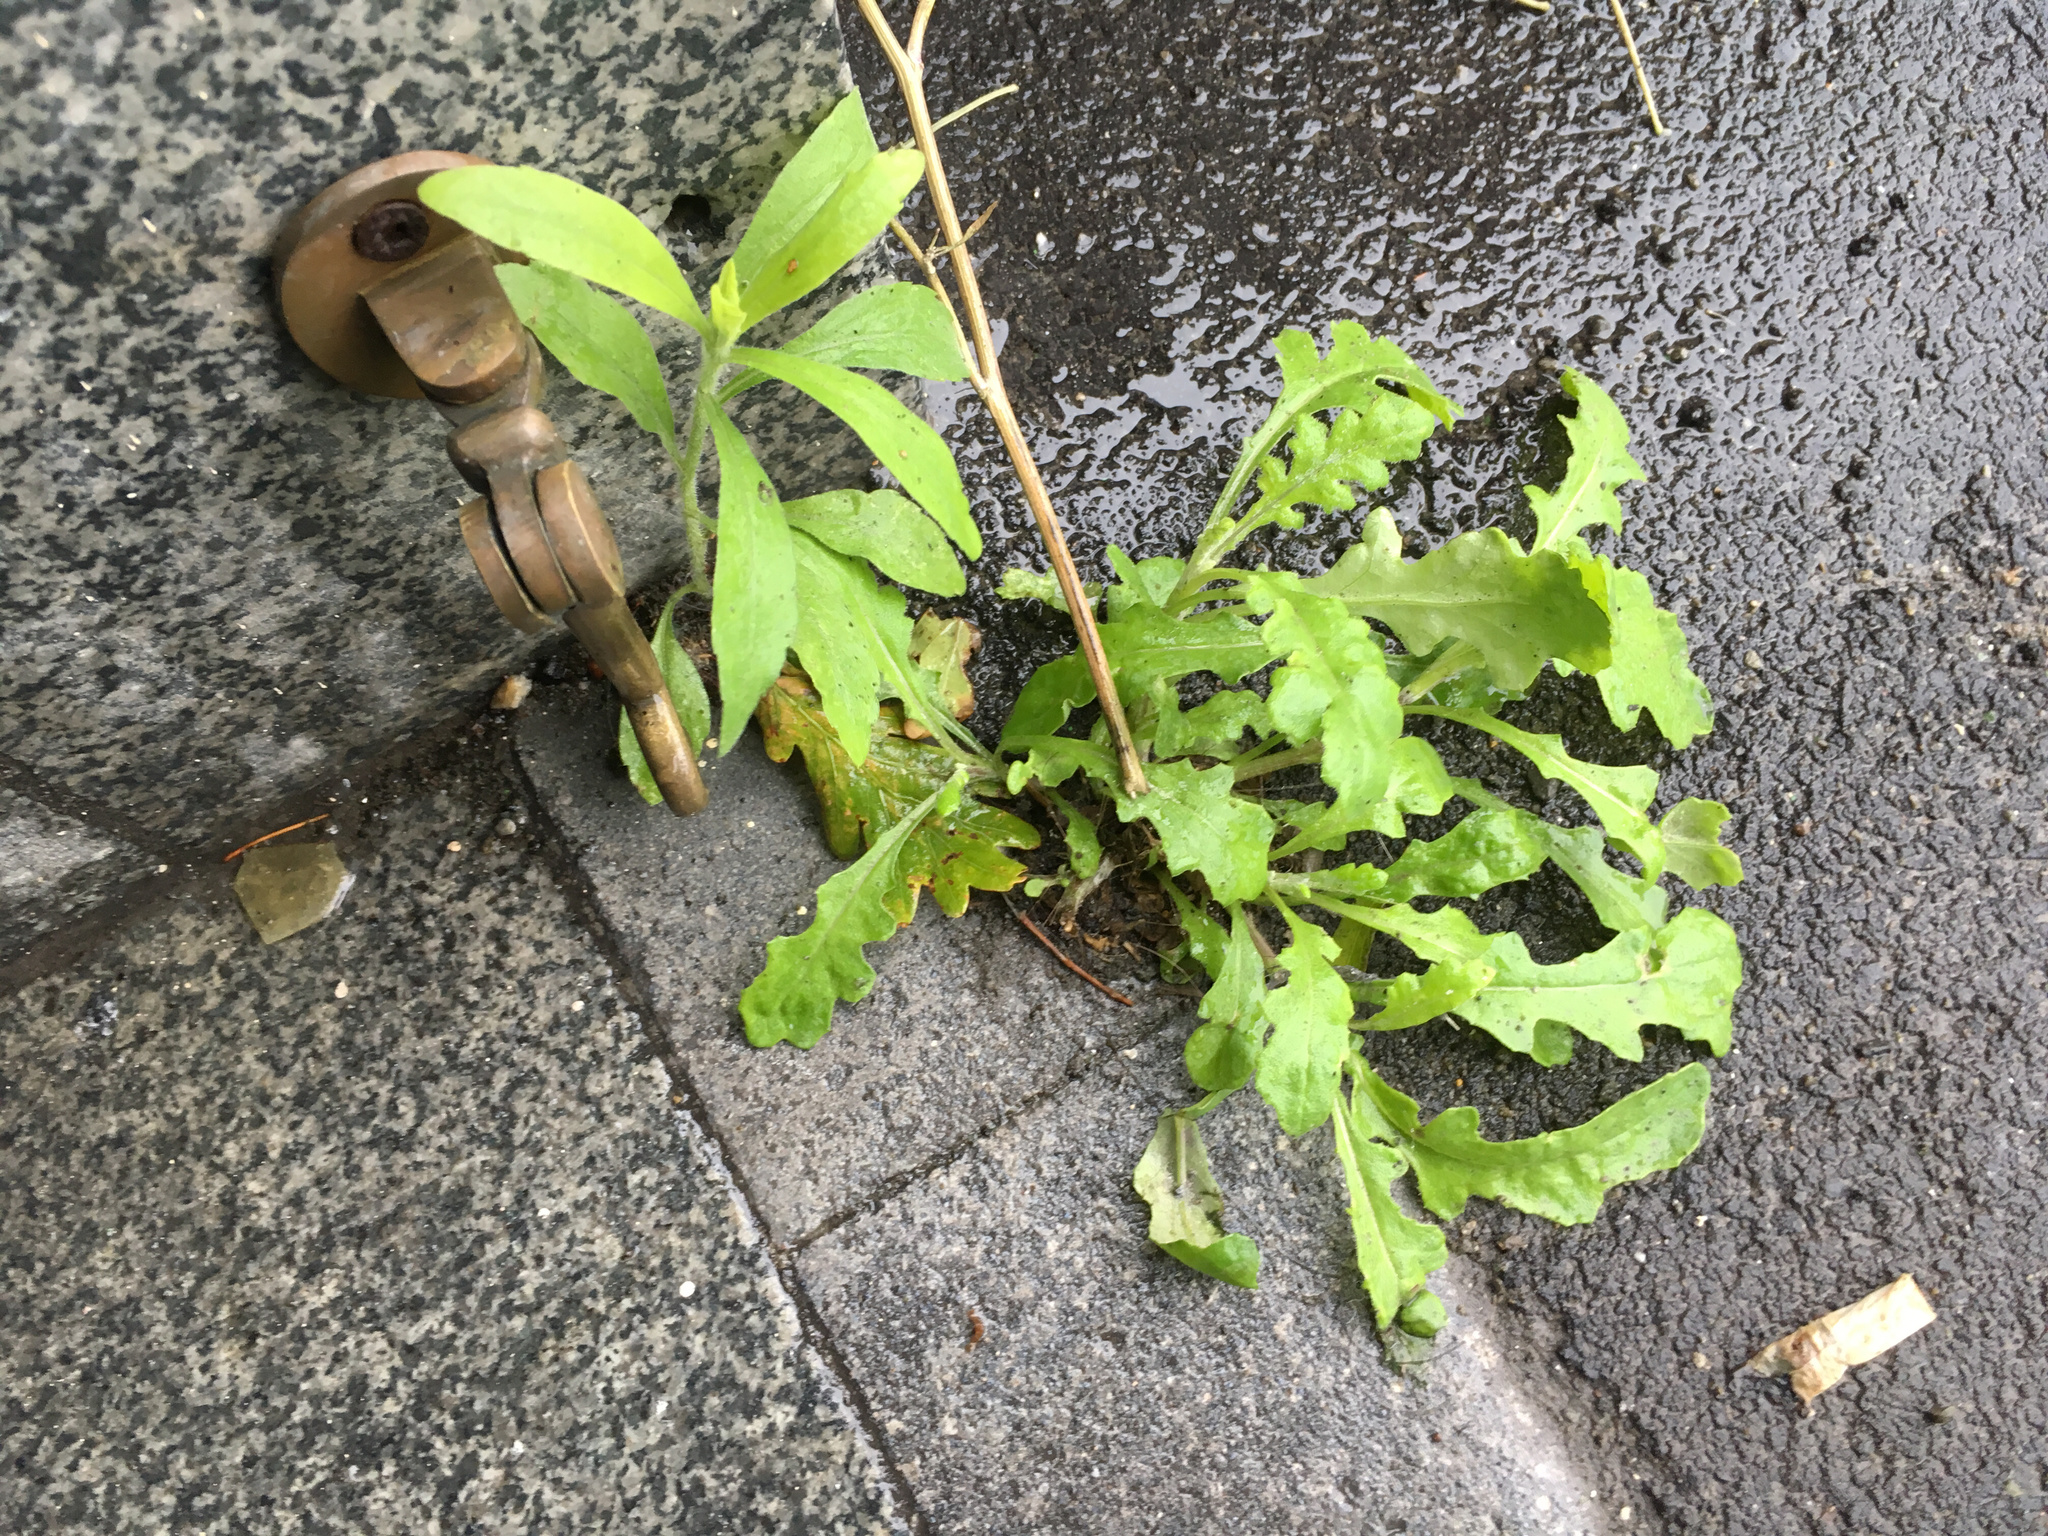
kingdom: Plantae
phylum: Tracheophyta
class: Magnoliopsida
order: Asterales
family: Asteraceae
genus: Senecio
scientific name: Senecio glomeratus
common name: Cutleaf burnweed
